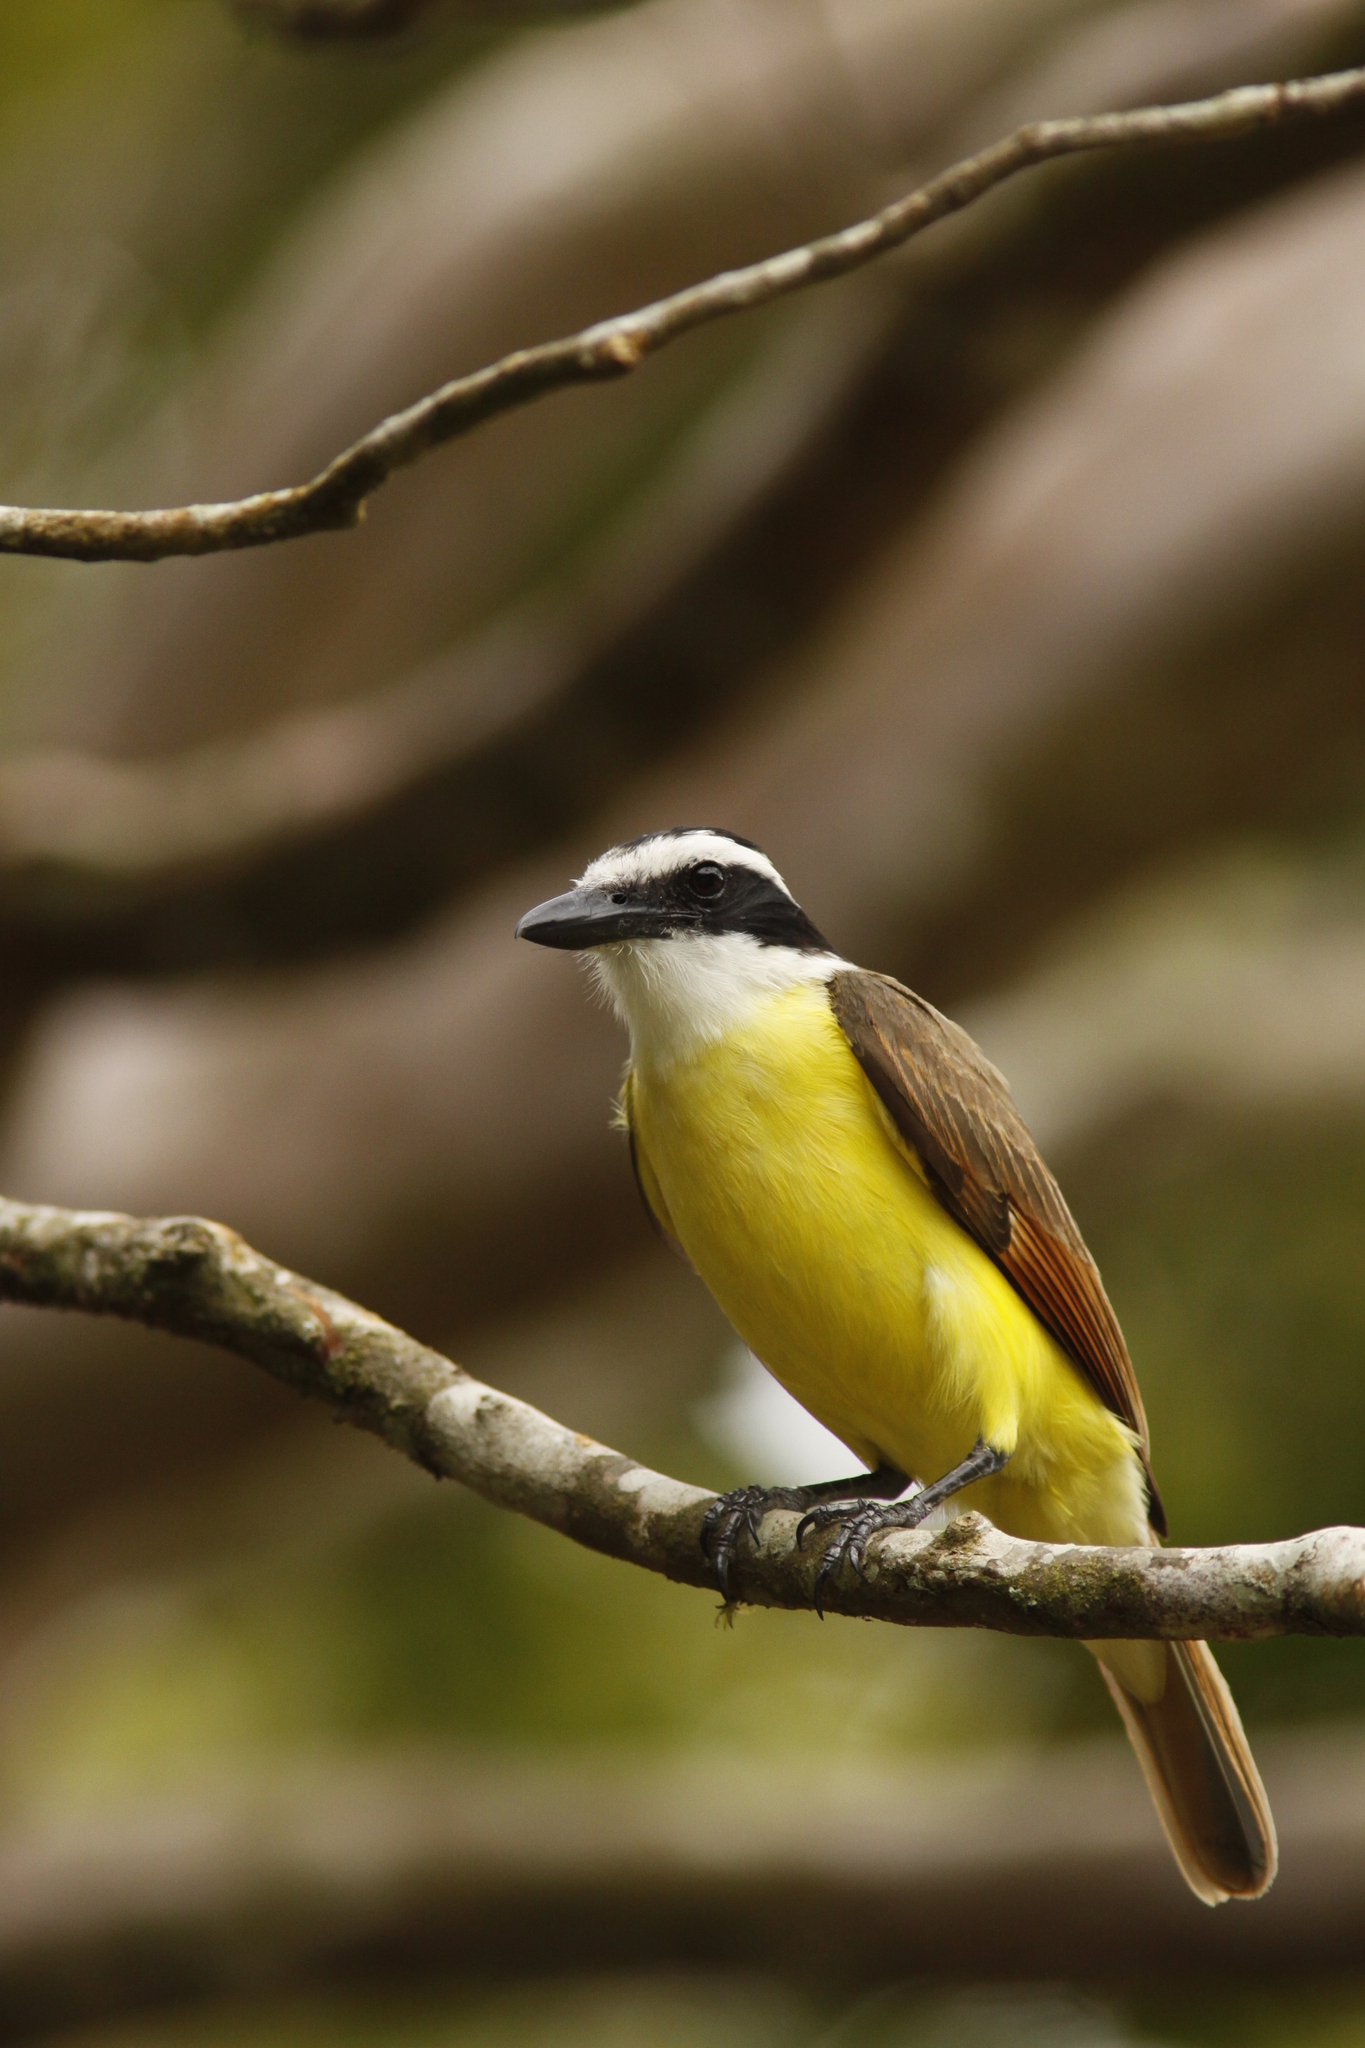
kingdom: Animalia
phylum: Chordata
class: Aves
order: Passeriformes
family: Tyrannidae
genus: Pitangus
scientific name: Pitangus sulphuratus
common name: Great kiskadee
